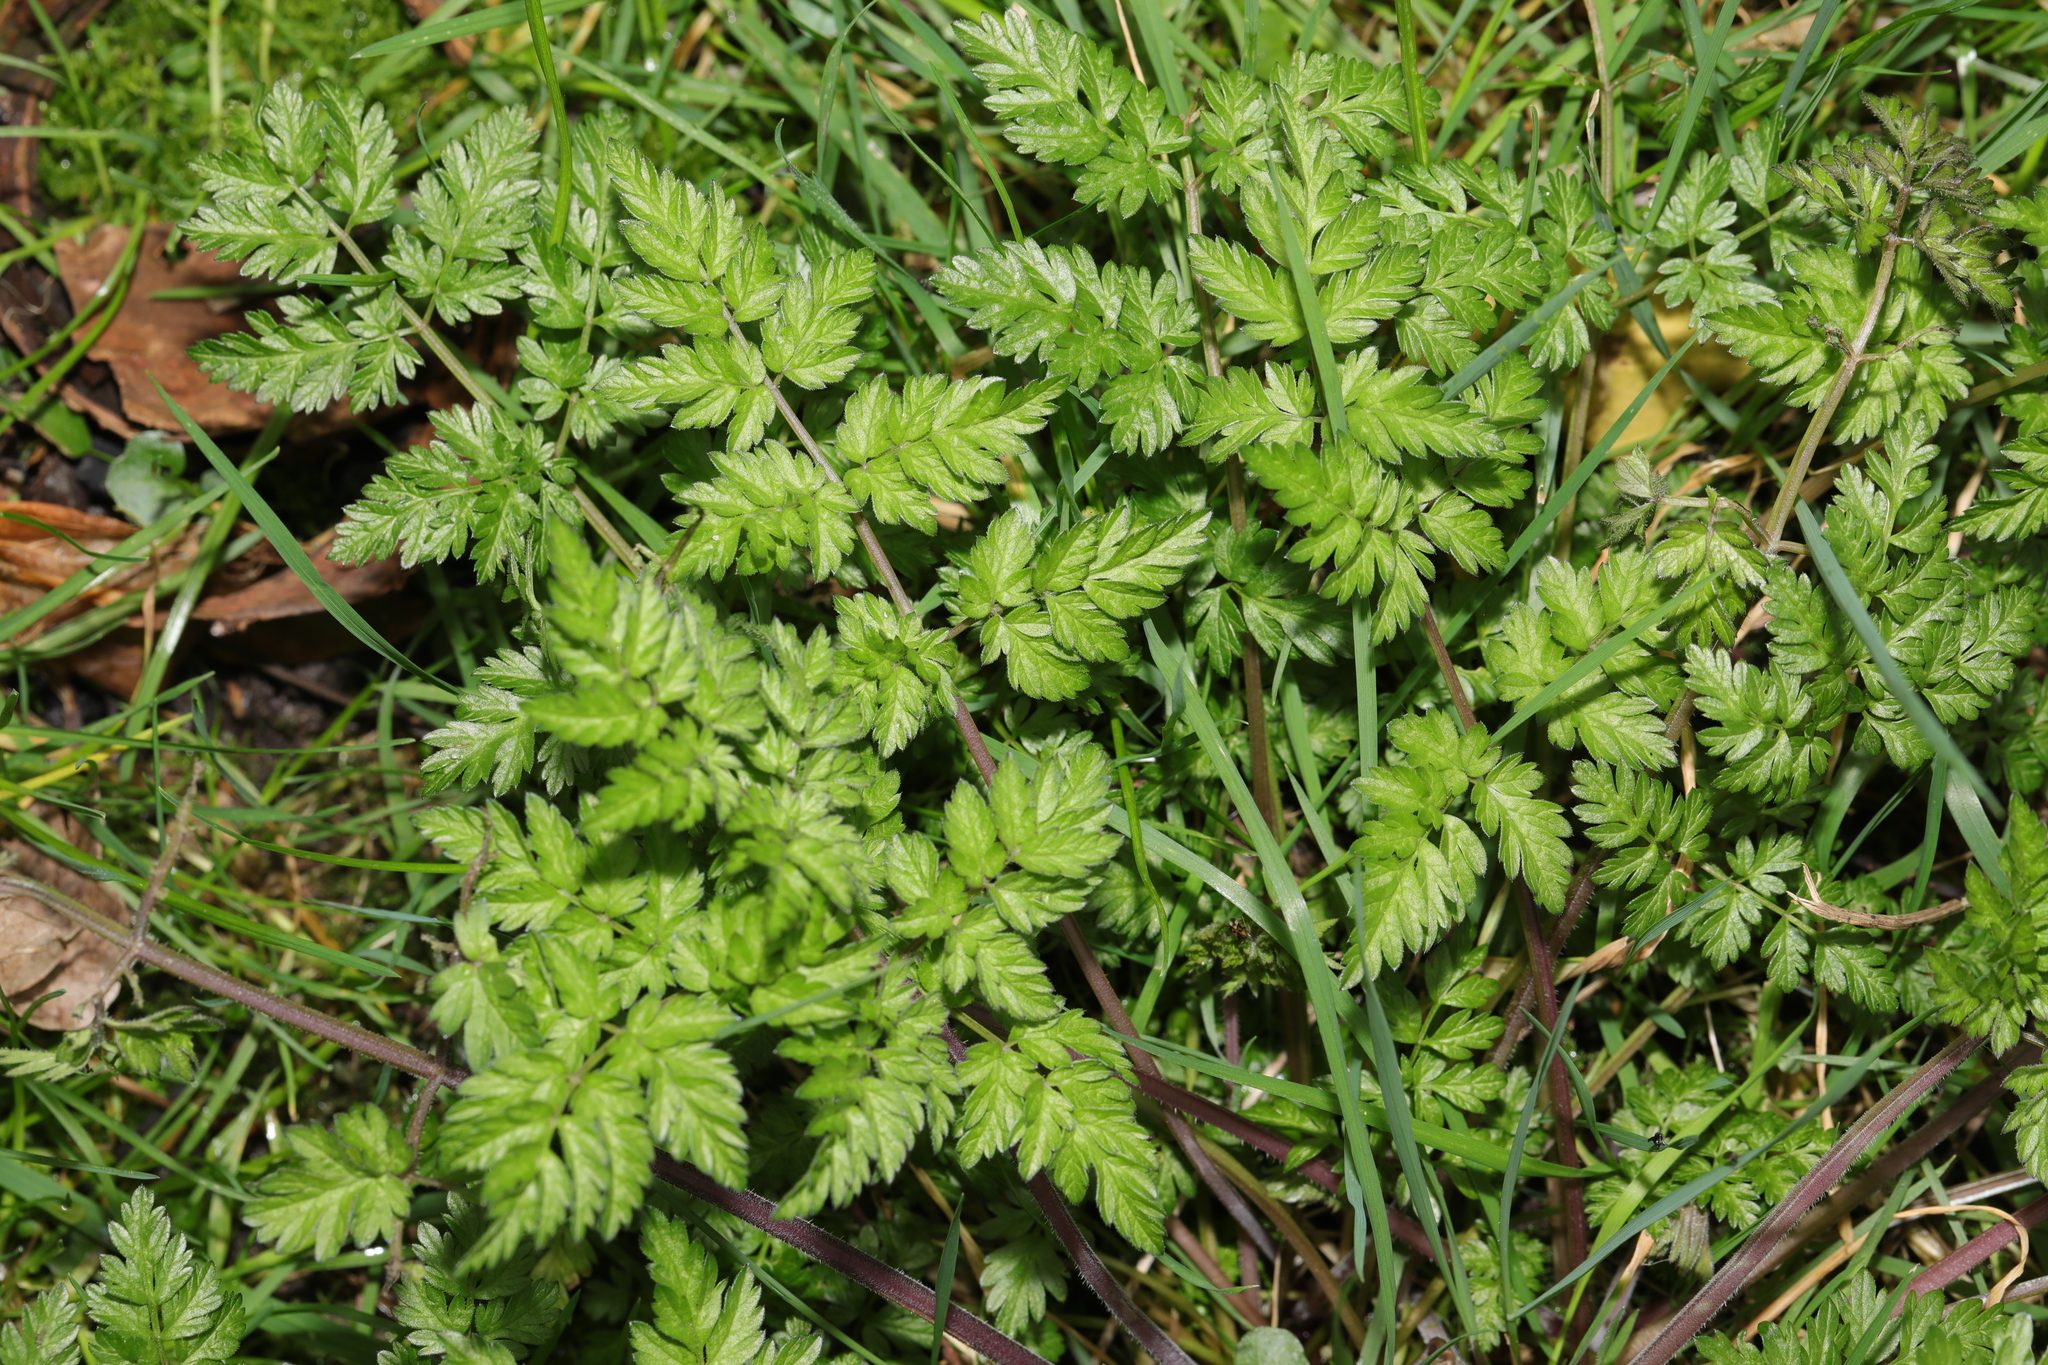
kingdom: Plantae
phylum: Tracheophyta
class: Magnoliopsida
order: Apiales
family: Apiaceae
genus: Anthriscus
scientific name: Anthriscus sylvestris
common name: Cow parsley
